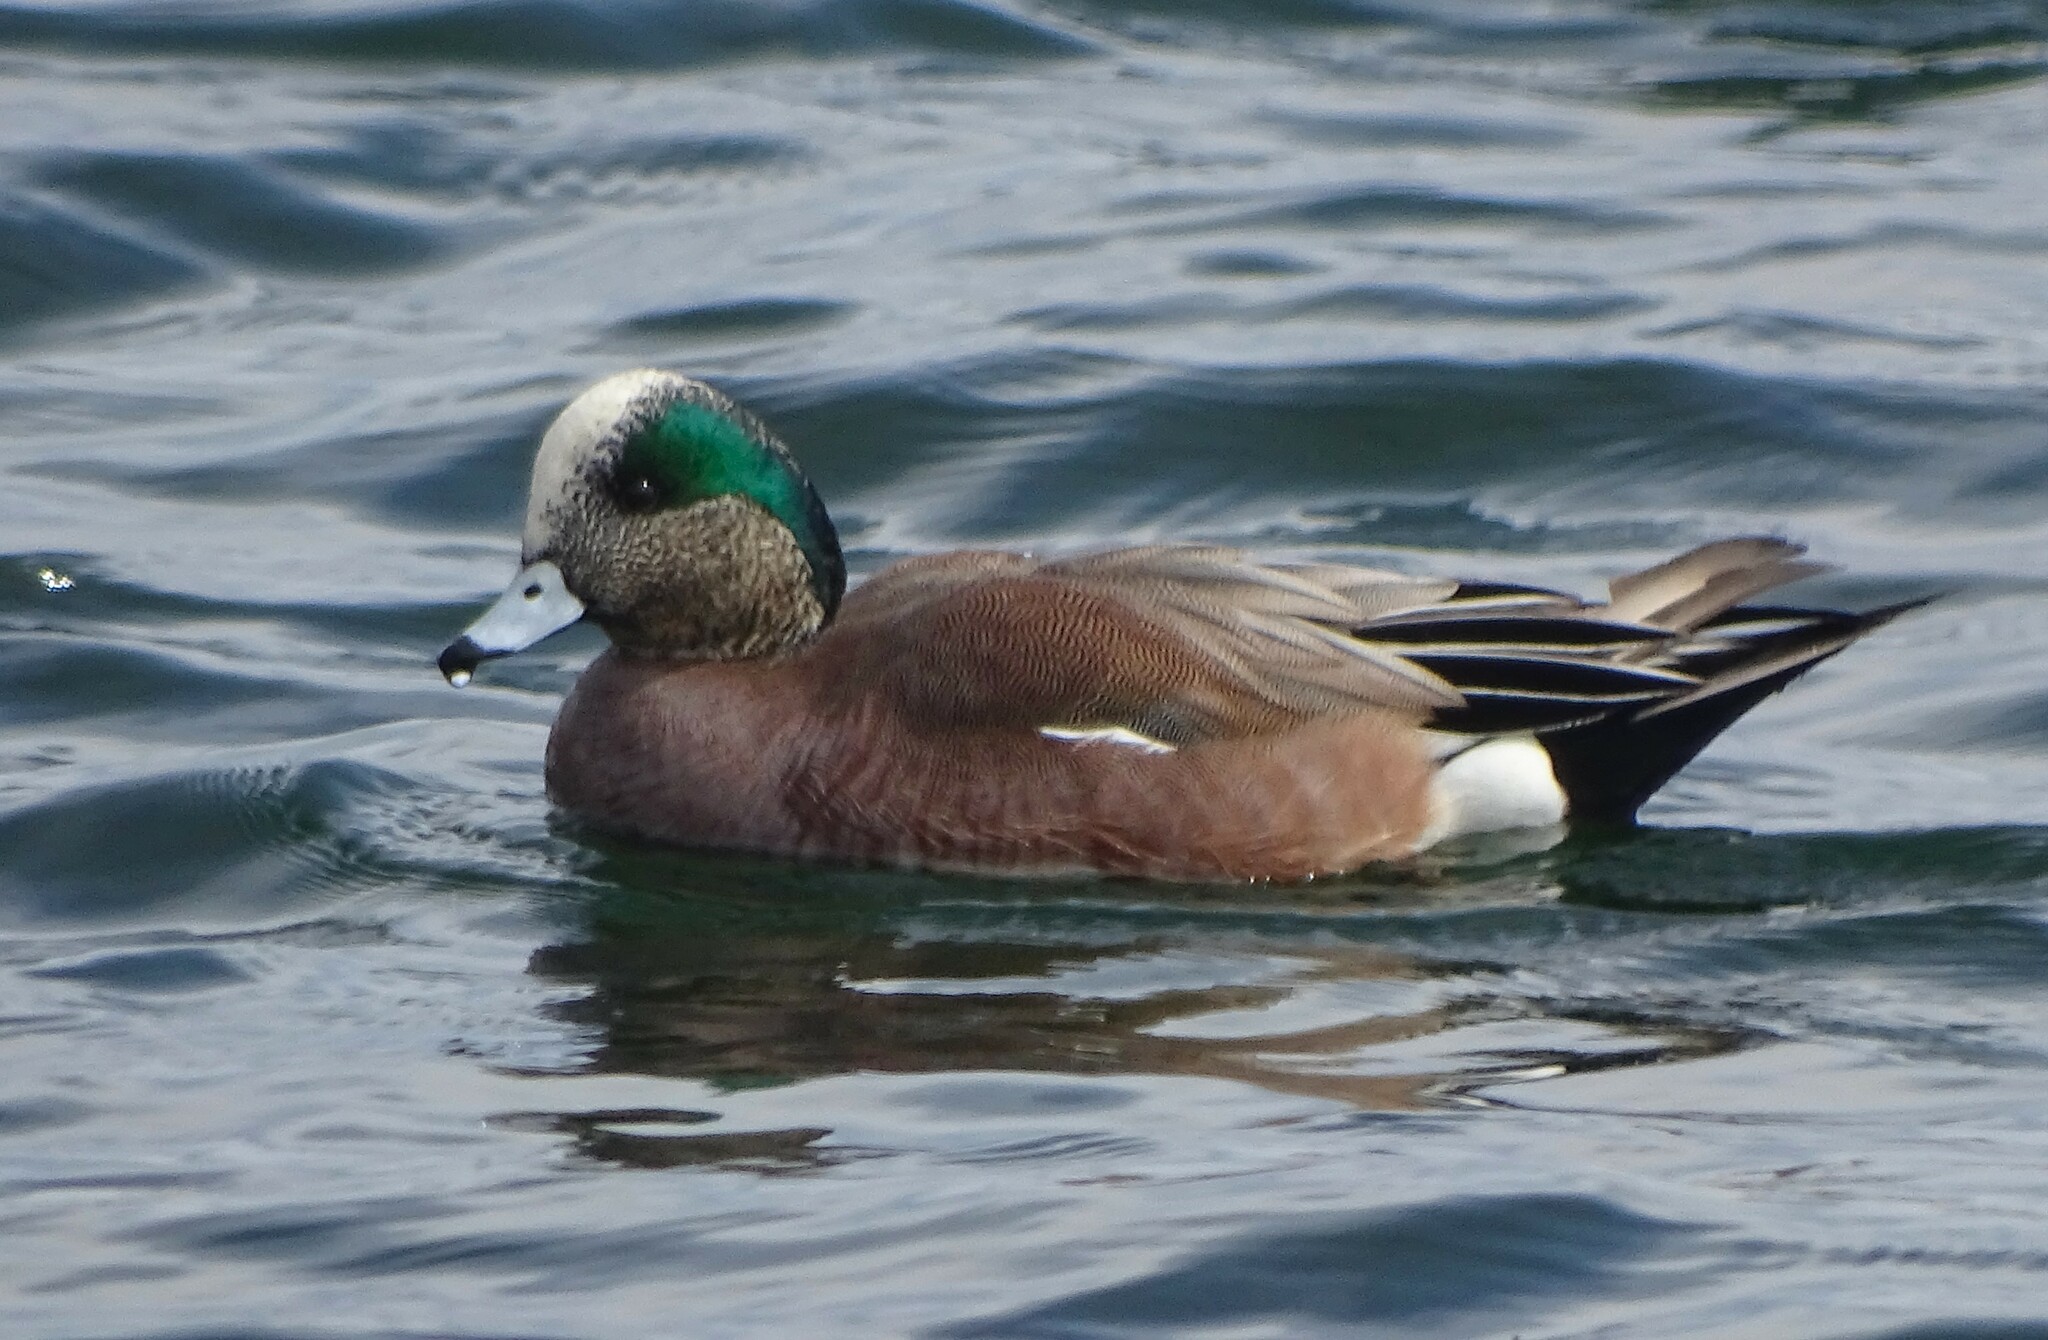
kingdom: Animalia
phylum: Chordata
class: Aves
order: Anseriformes
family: Anatidae
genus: Mareca
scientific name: Mareca americana
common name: American wigeon
